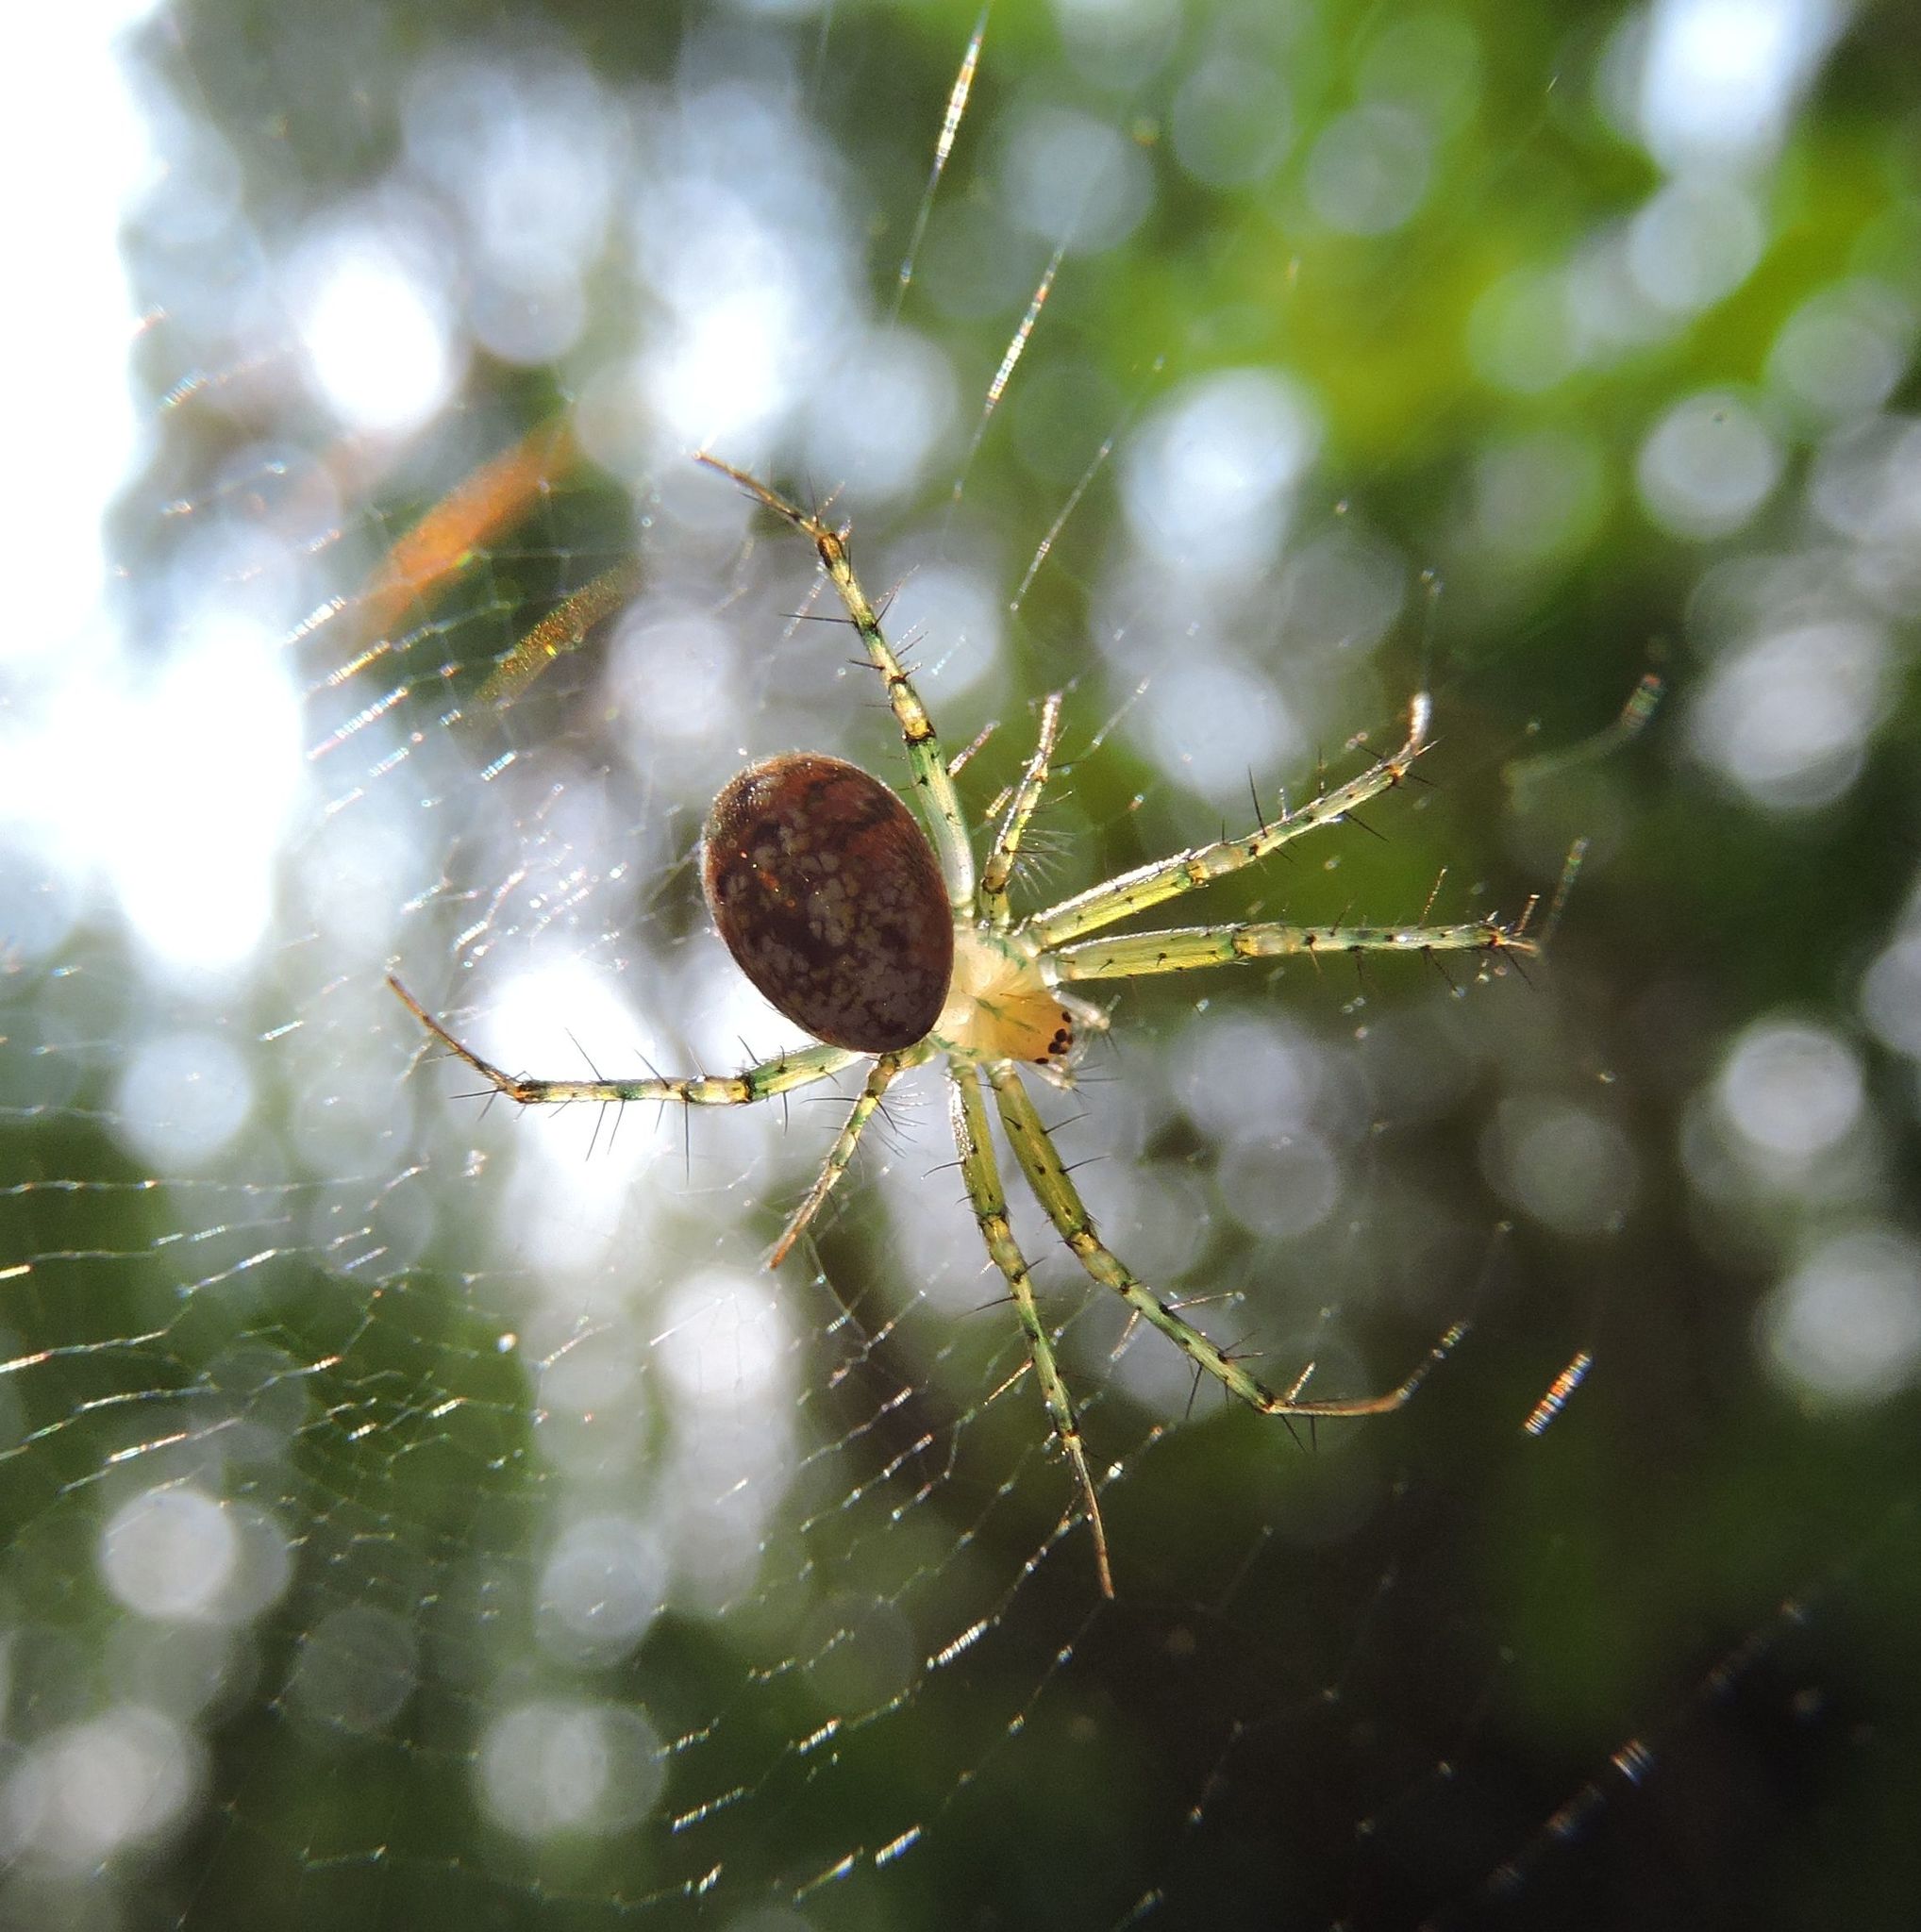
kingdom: Animalia
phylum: Arthropoda
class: Arachnida
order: Araneae
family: Araneidae
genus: Mangora
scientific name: Mangora maculata
